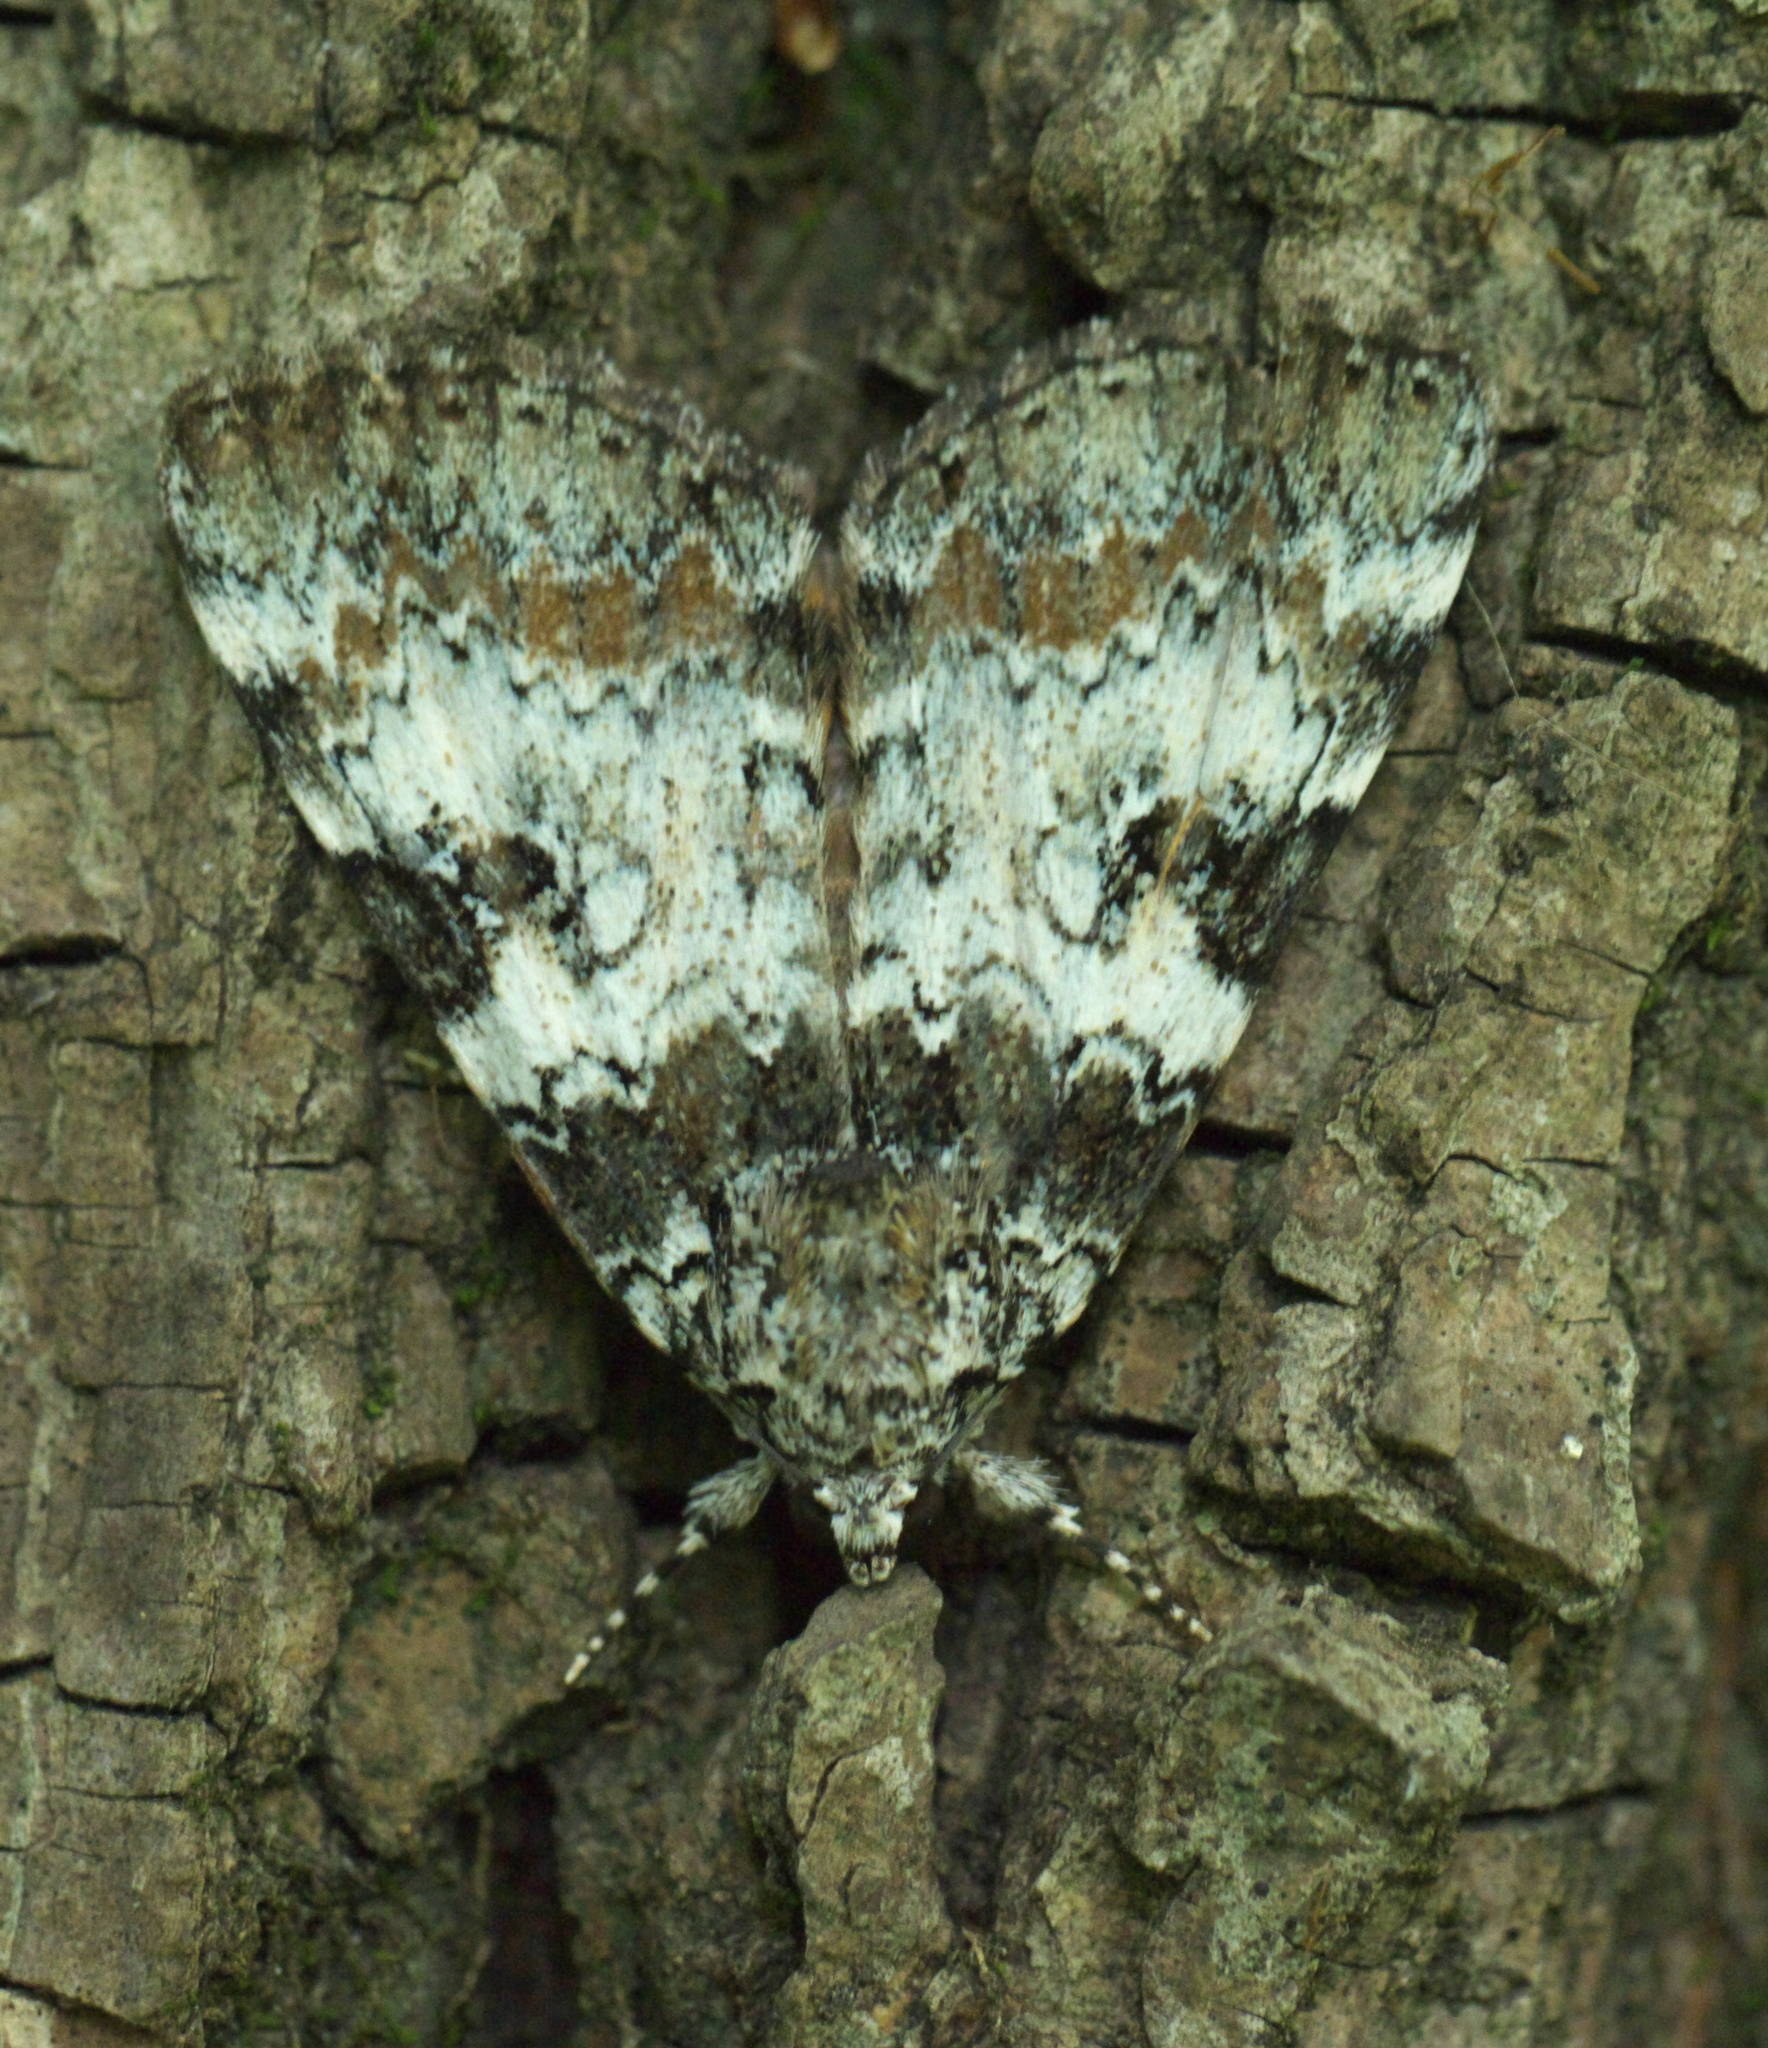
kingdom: Animalia
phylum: Arthropoda
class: Insecta
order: Lepidoptera
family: Erebidae
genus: Catocala
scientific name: Catocala connubialis
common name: Connubial underwing
